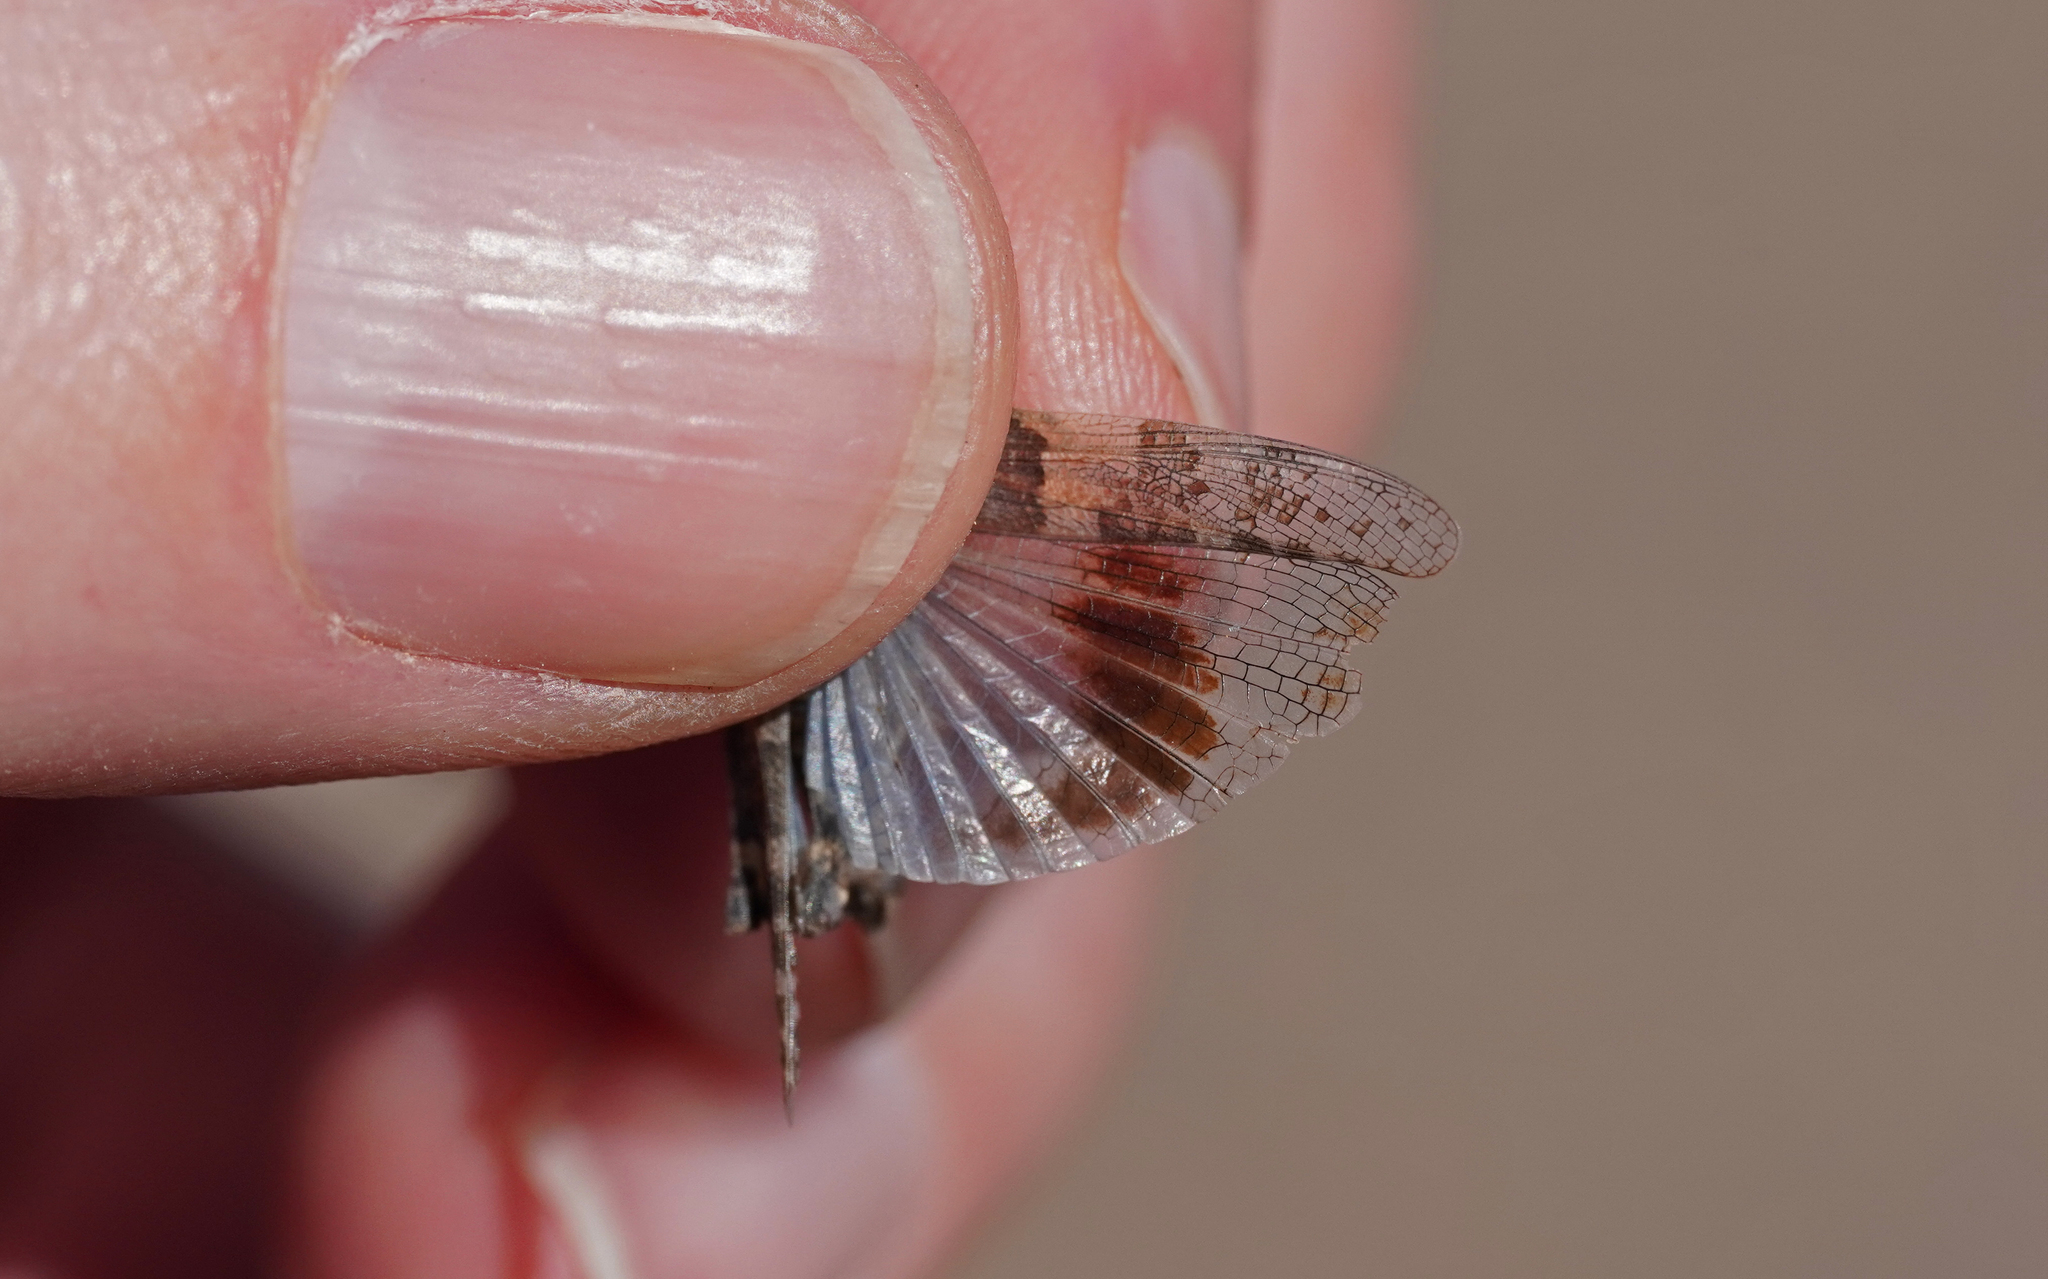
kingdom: Animalia
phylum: Arthropoda
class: Insecta
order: Orthoptera
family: Acrididae
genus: Sphingonotus
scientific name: Sphingonotus pachecoi
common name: Lanzarote sand grasshopper
